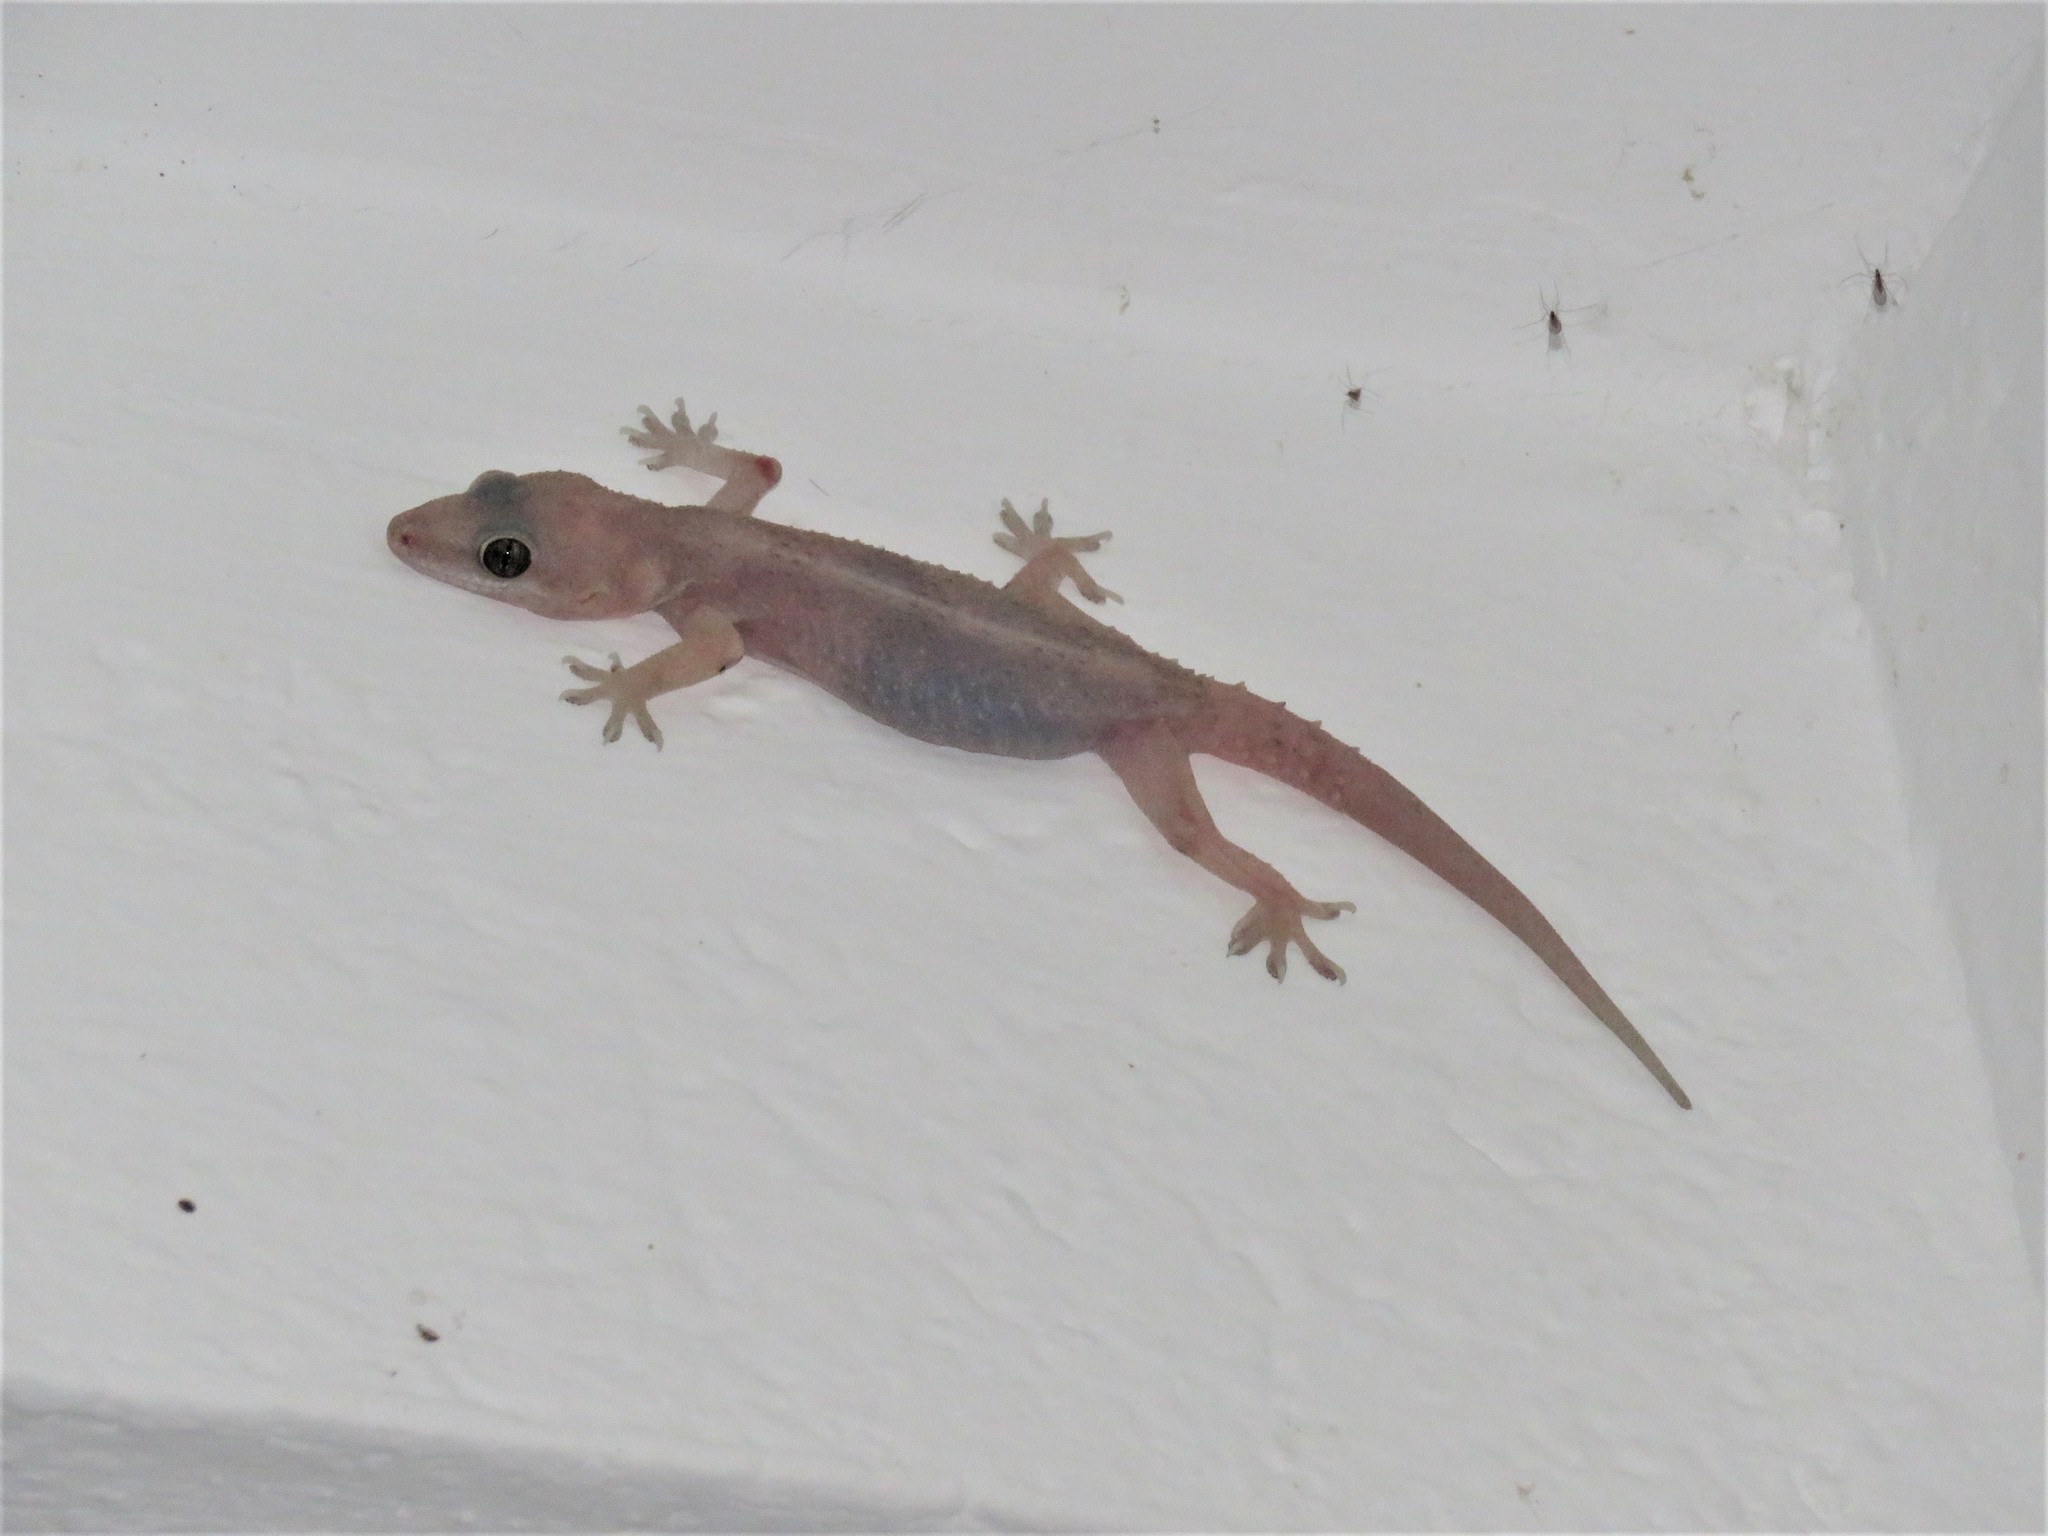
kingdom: Animalia
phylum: Chordata
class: Squamata
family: Gekkonidae
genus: Hemidactylus
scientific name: Hemidactylus angulatus
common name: Brook's house gecko
